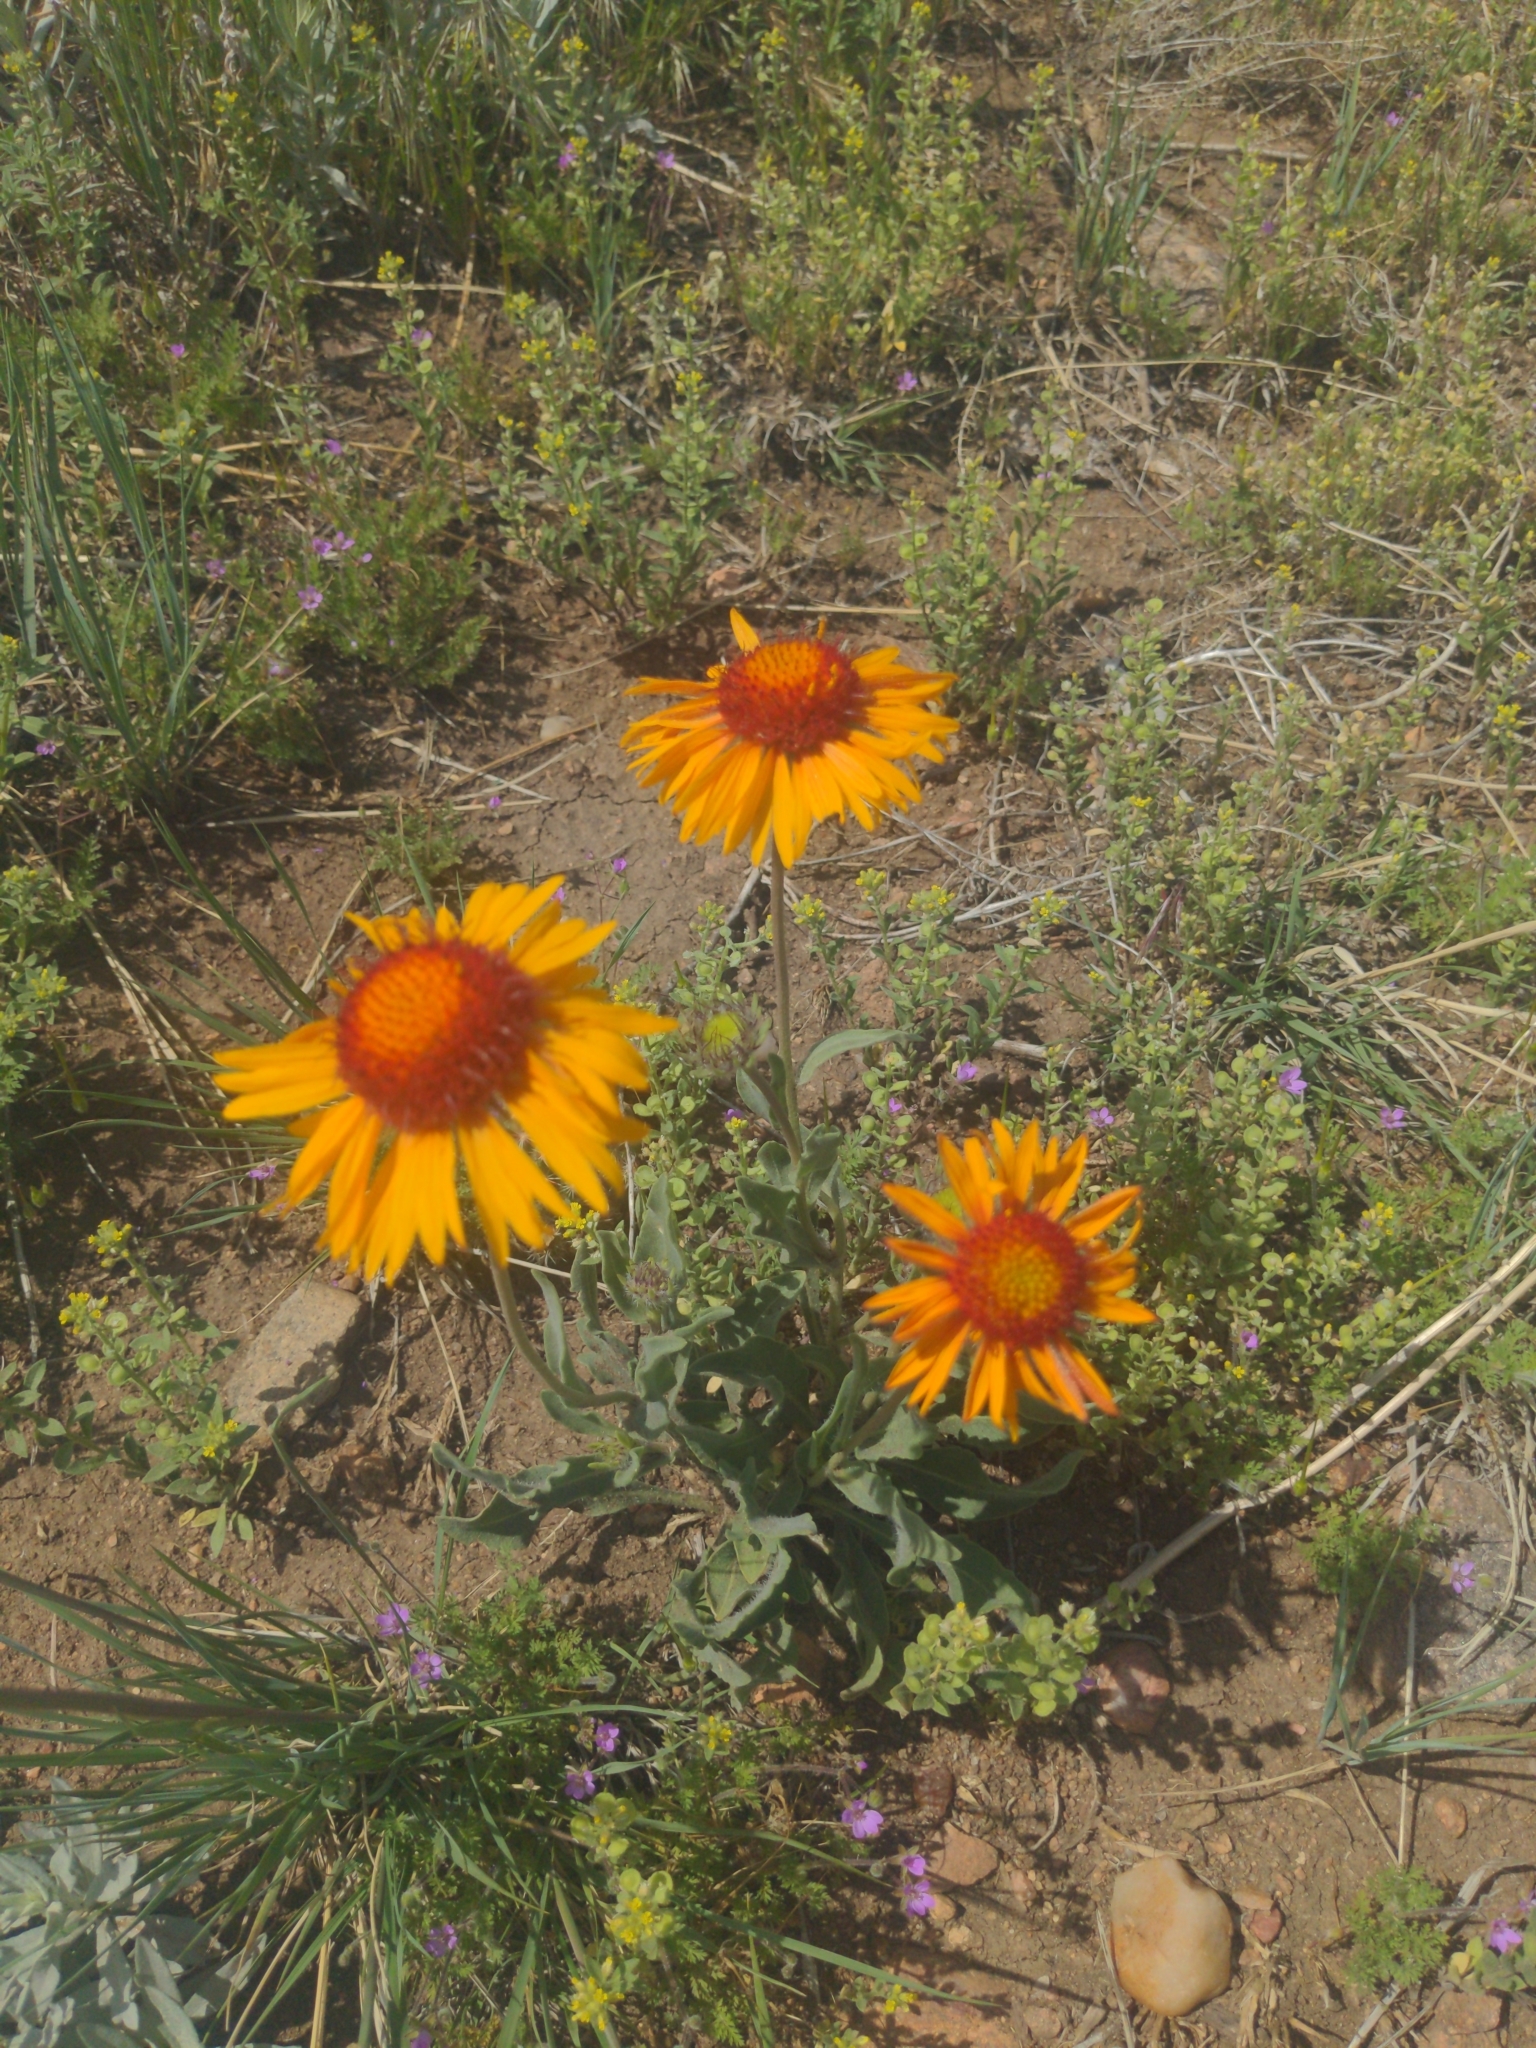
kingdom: Plantae
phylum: Tracheophyta
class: Magnoliopsida
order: Asterales
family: Asteraceae
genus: Gaillardia
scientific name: Gaillardia aristata
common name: Blanket-flower
